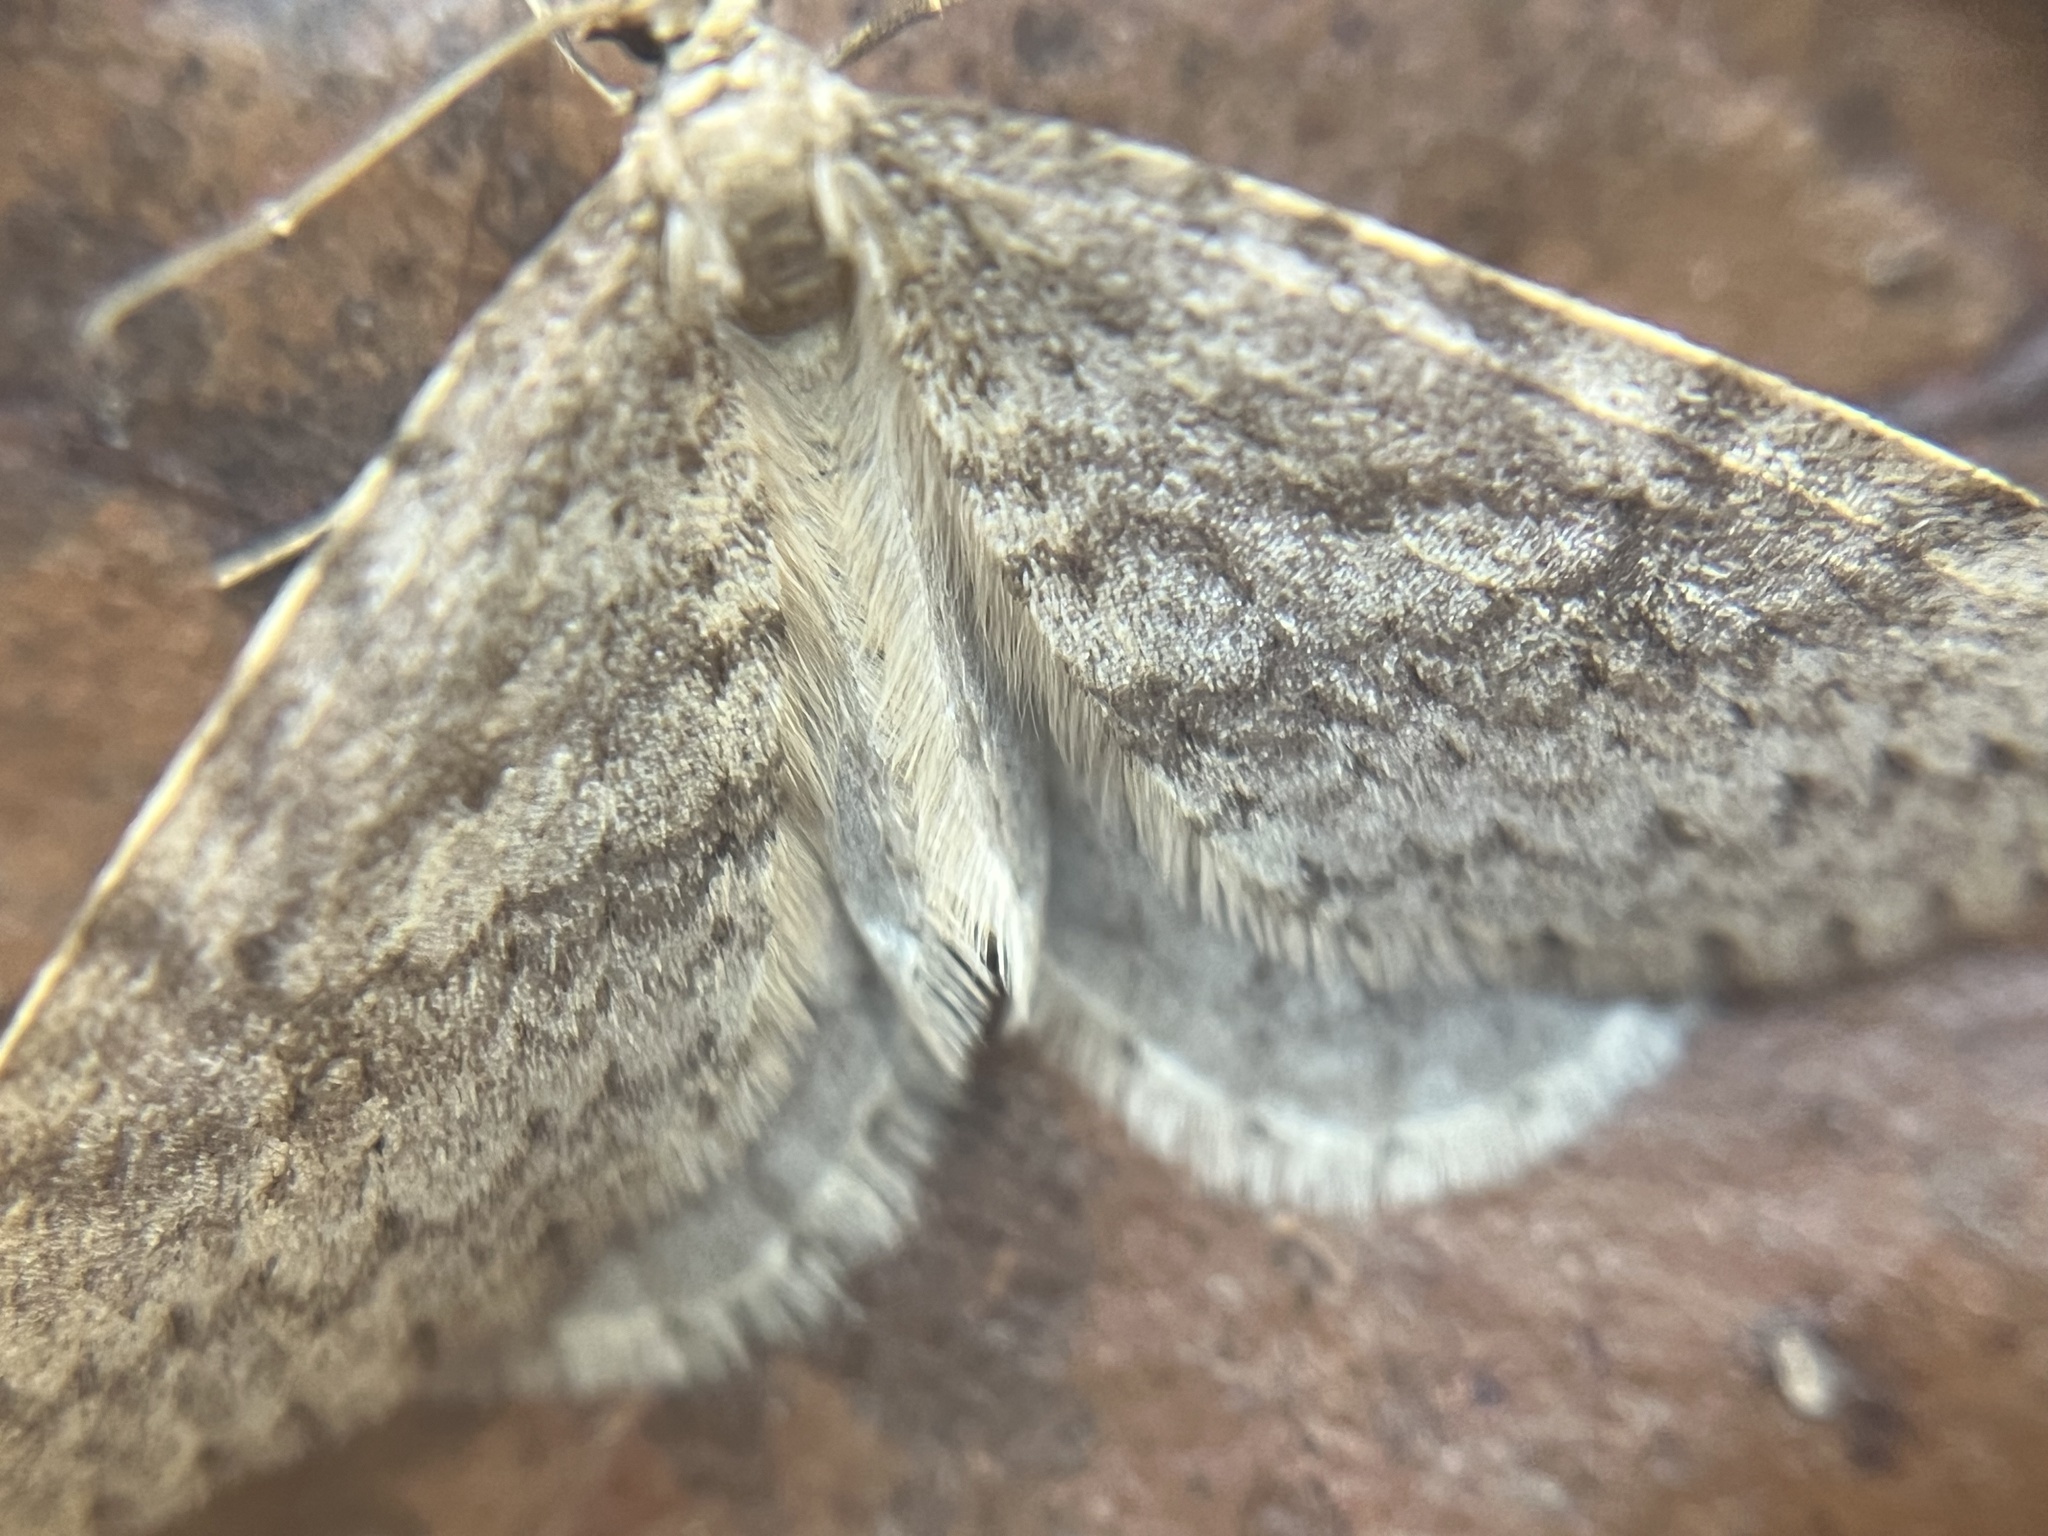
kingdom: Animalia
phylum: Arthropoda
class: Insecta
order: Lepidoptera
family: Geometridae
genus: Operophtera
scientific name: Operophtera bruceata
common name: Bruce spanworm
